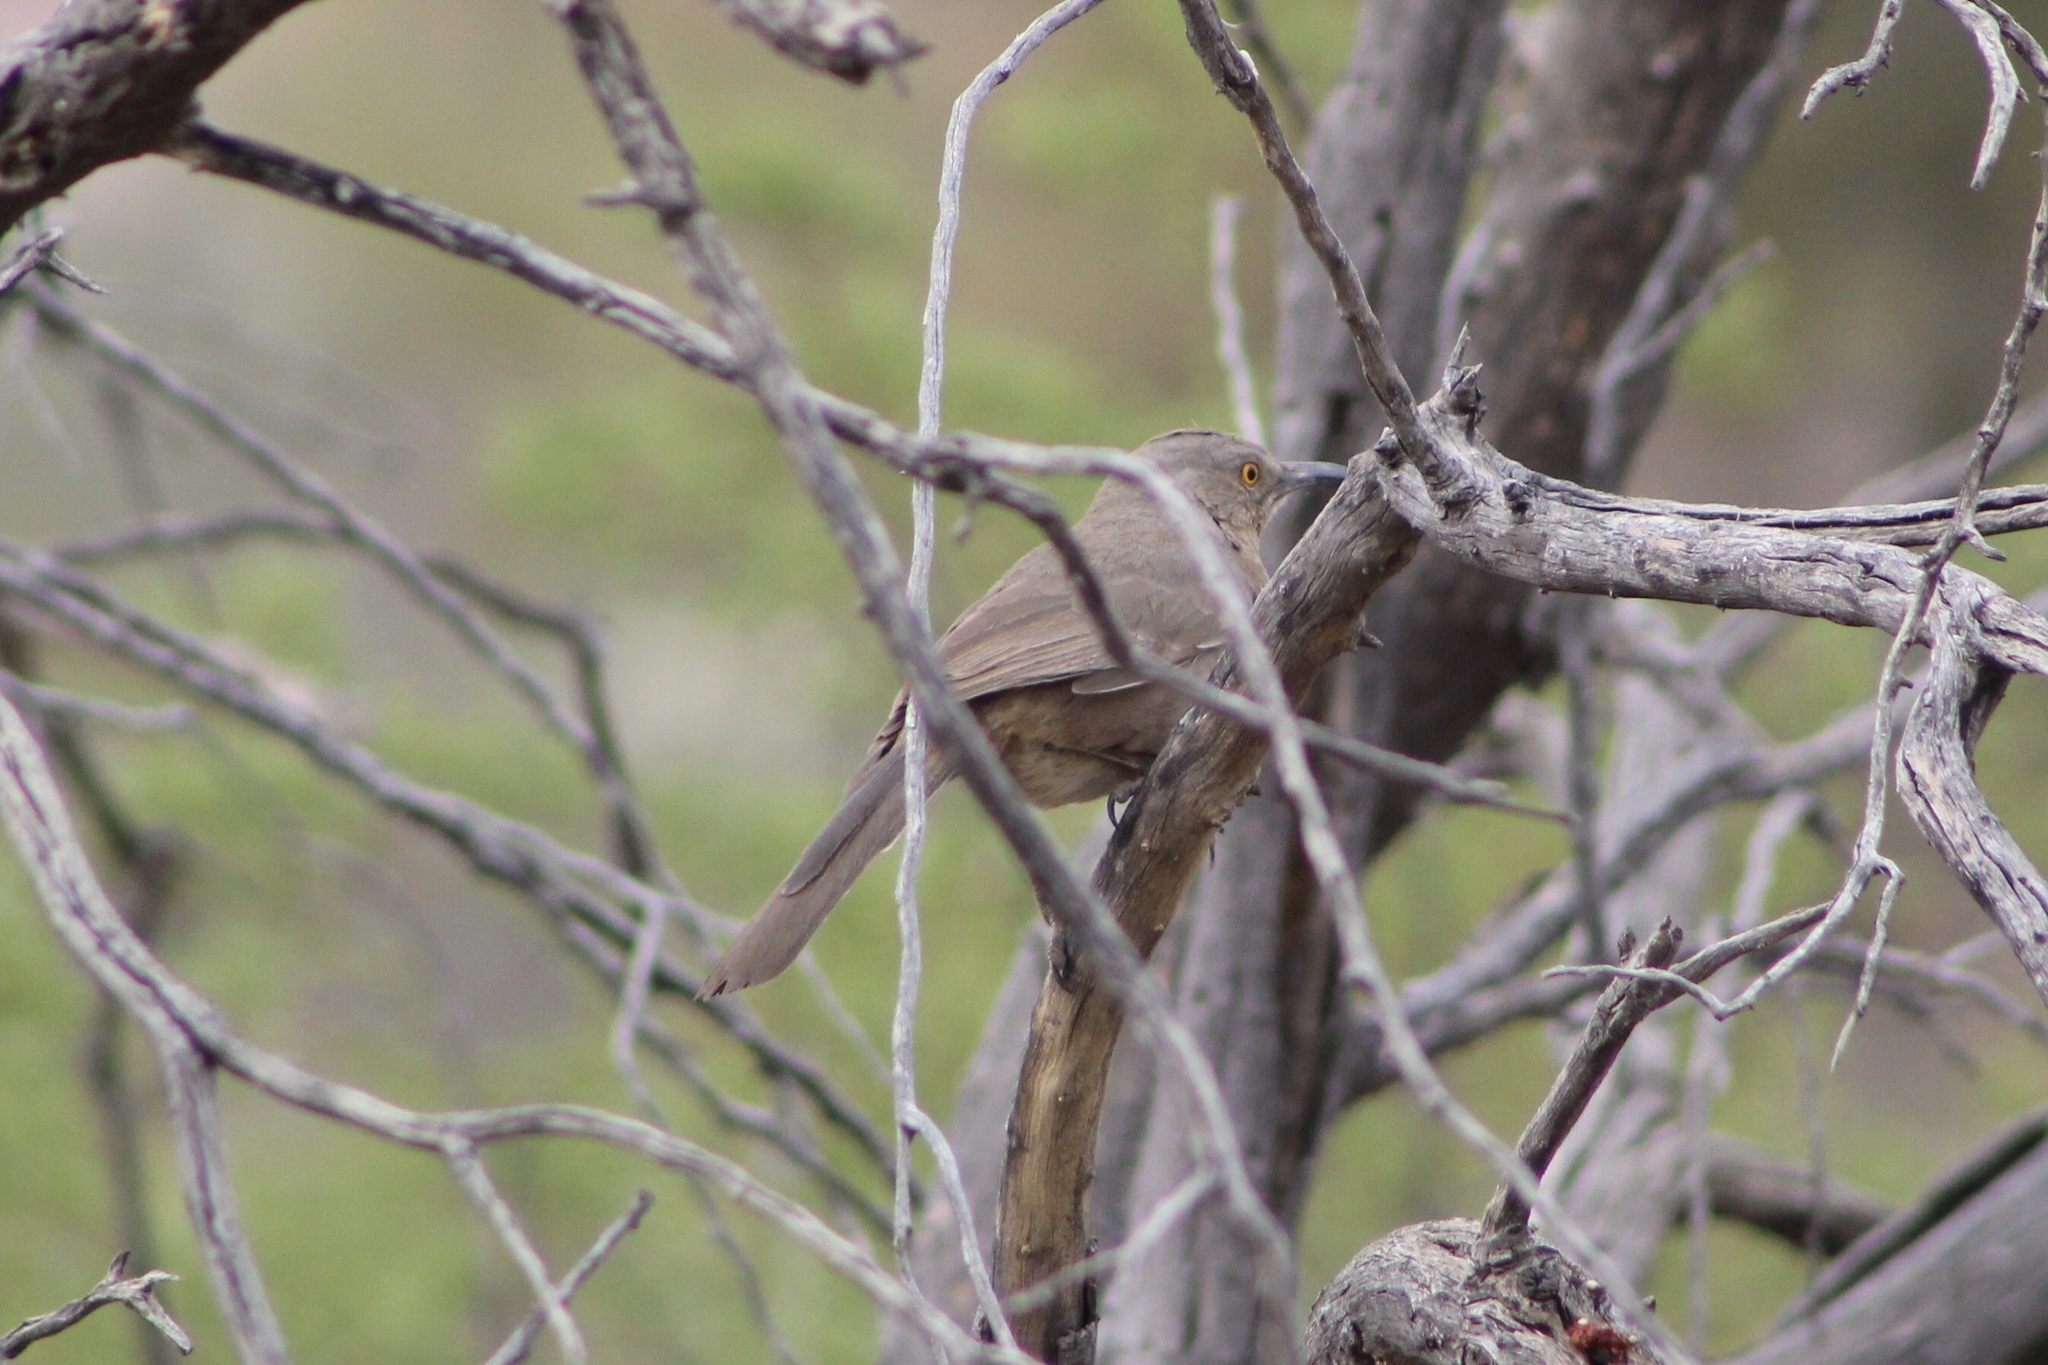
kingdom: Animalia
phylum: Chordata
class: Aves
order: Passeriformes
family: Mimidae
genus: Toxostoma
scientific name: Toxostoma curvirostre
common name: Curve-billed thrasher
